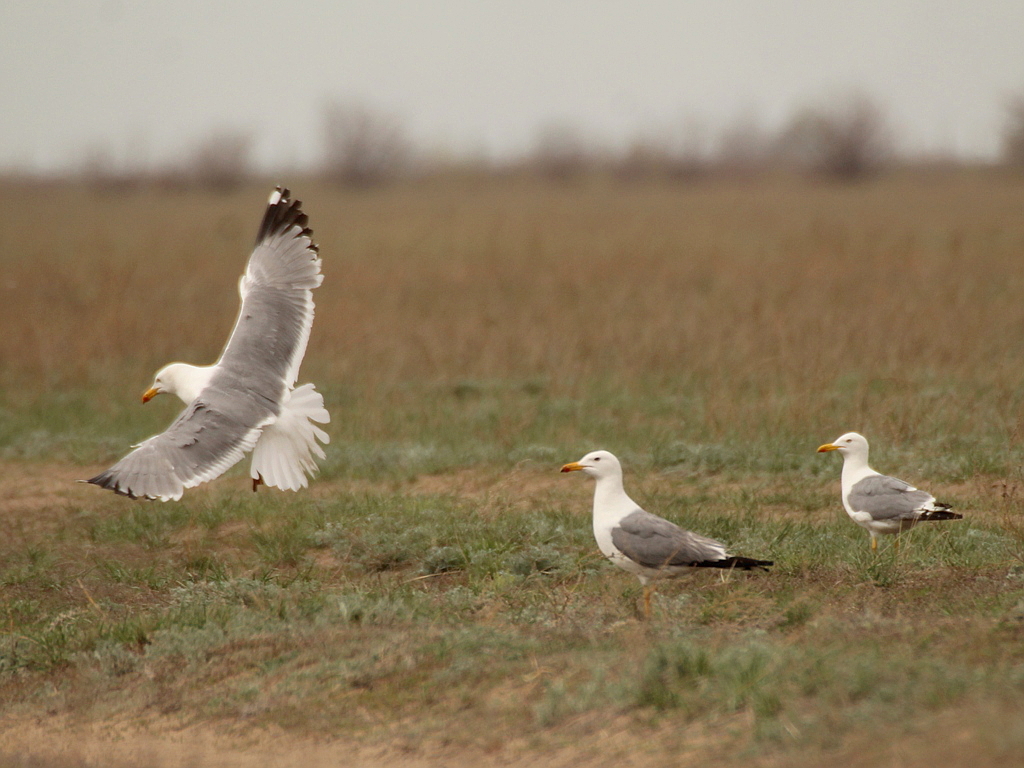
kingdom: Animalia
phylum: Chordata
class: Aves
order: Charadriiformes
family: Laridae
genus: Larus
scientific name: Larus fuscus
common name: Lesser black-backed gull
